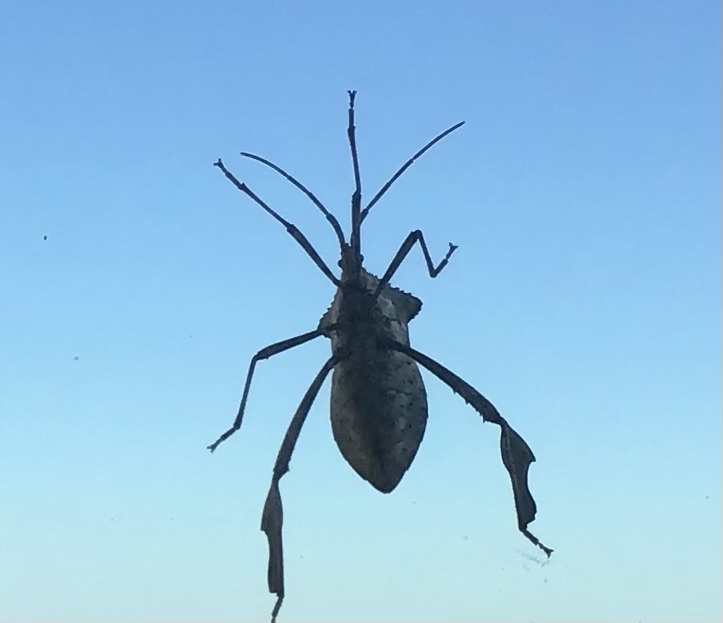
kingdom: Animalia
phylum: Arthropoda
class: Insecta
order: Hemiptera
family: Coreidae
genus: Acanthocephala
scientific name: Acanthocephala declivis
